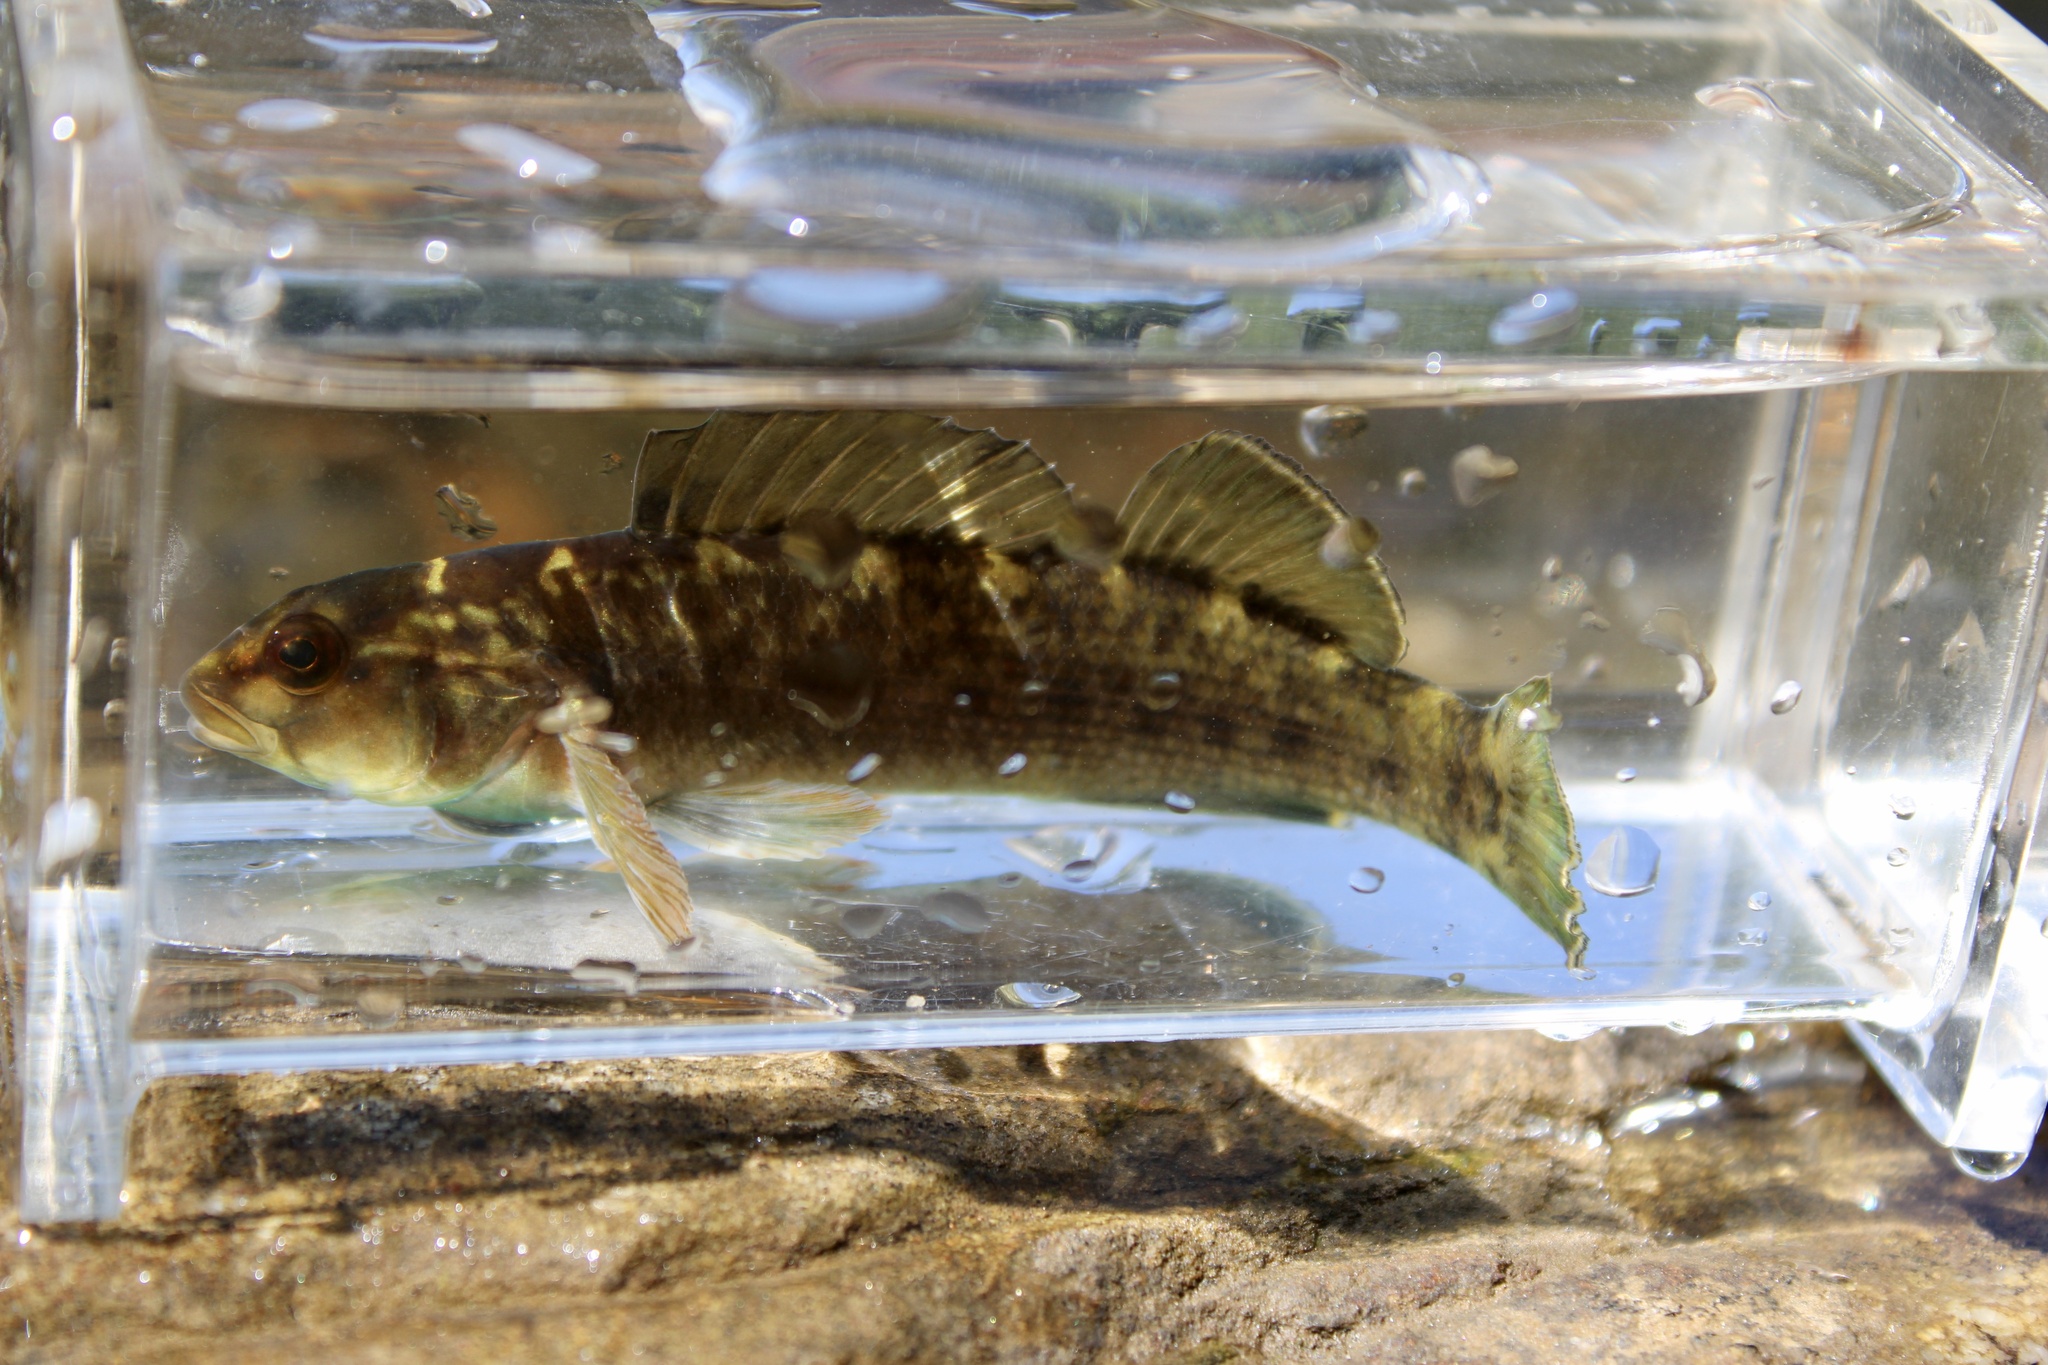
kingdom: Animalia
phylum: Chordata
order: Perciformes
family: Percidae
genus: Etheostoma
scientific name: Etheostoma chlorobranchium
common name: Greenfin darter
